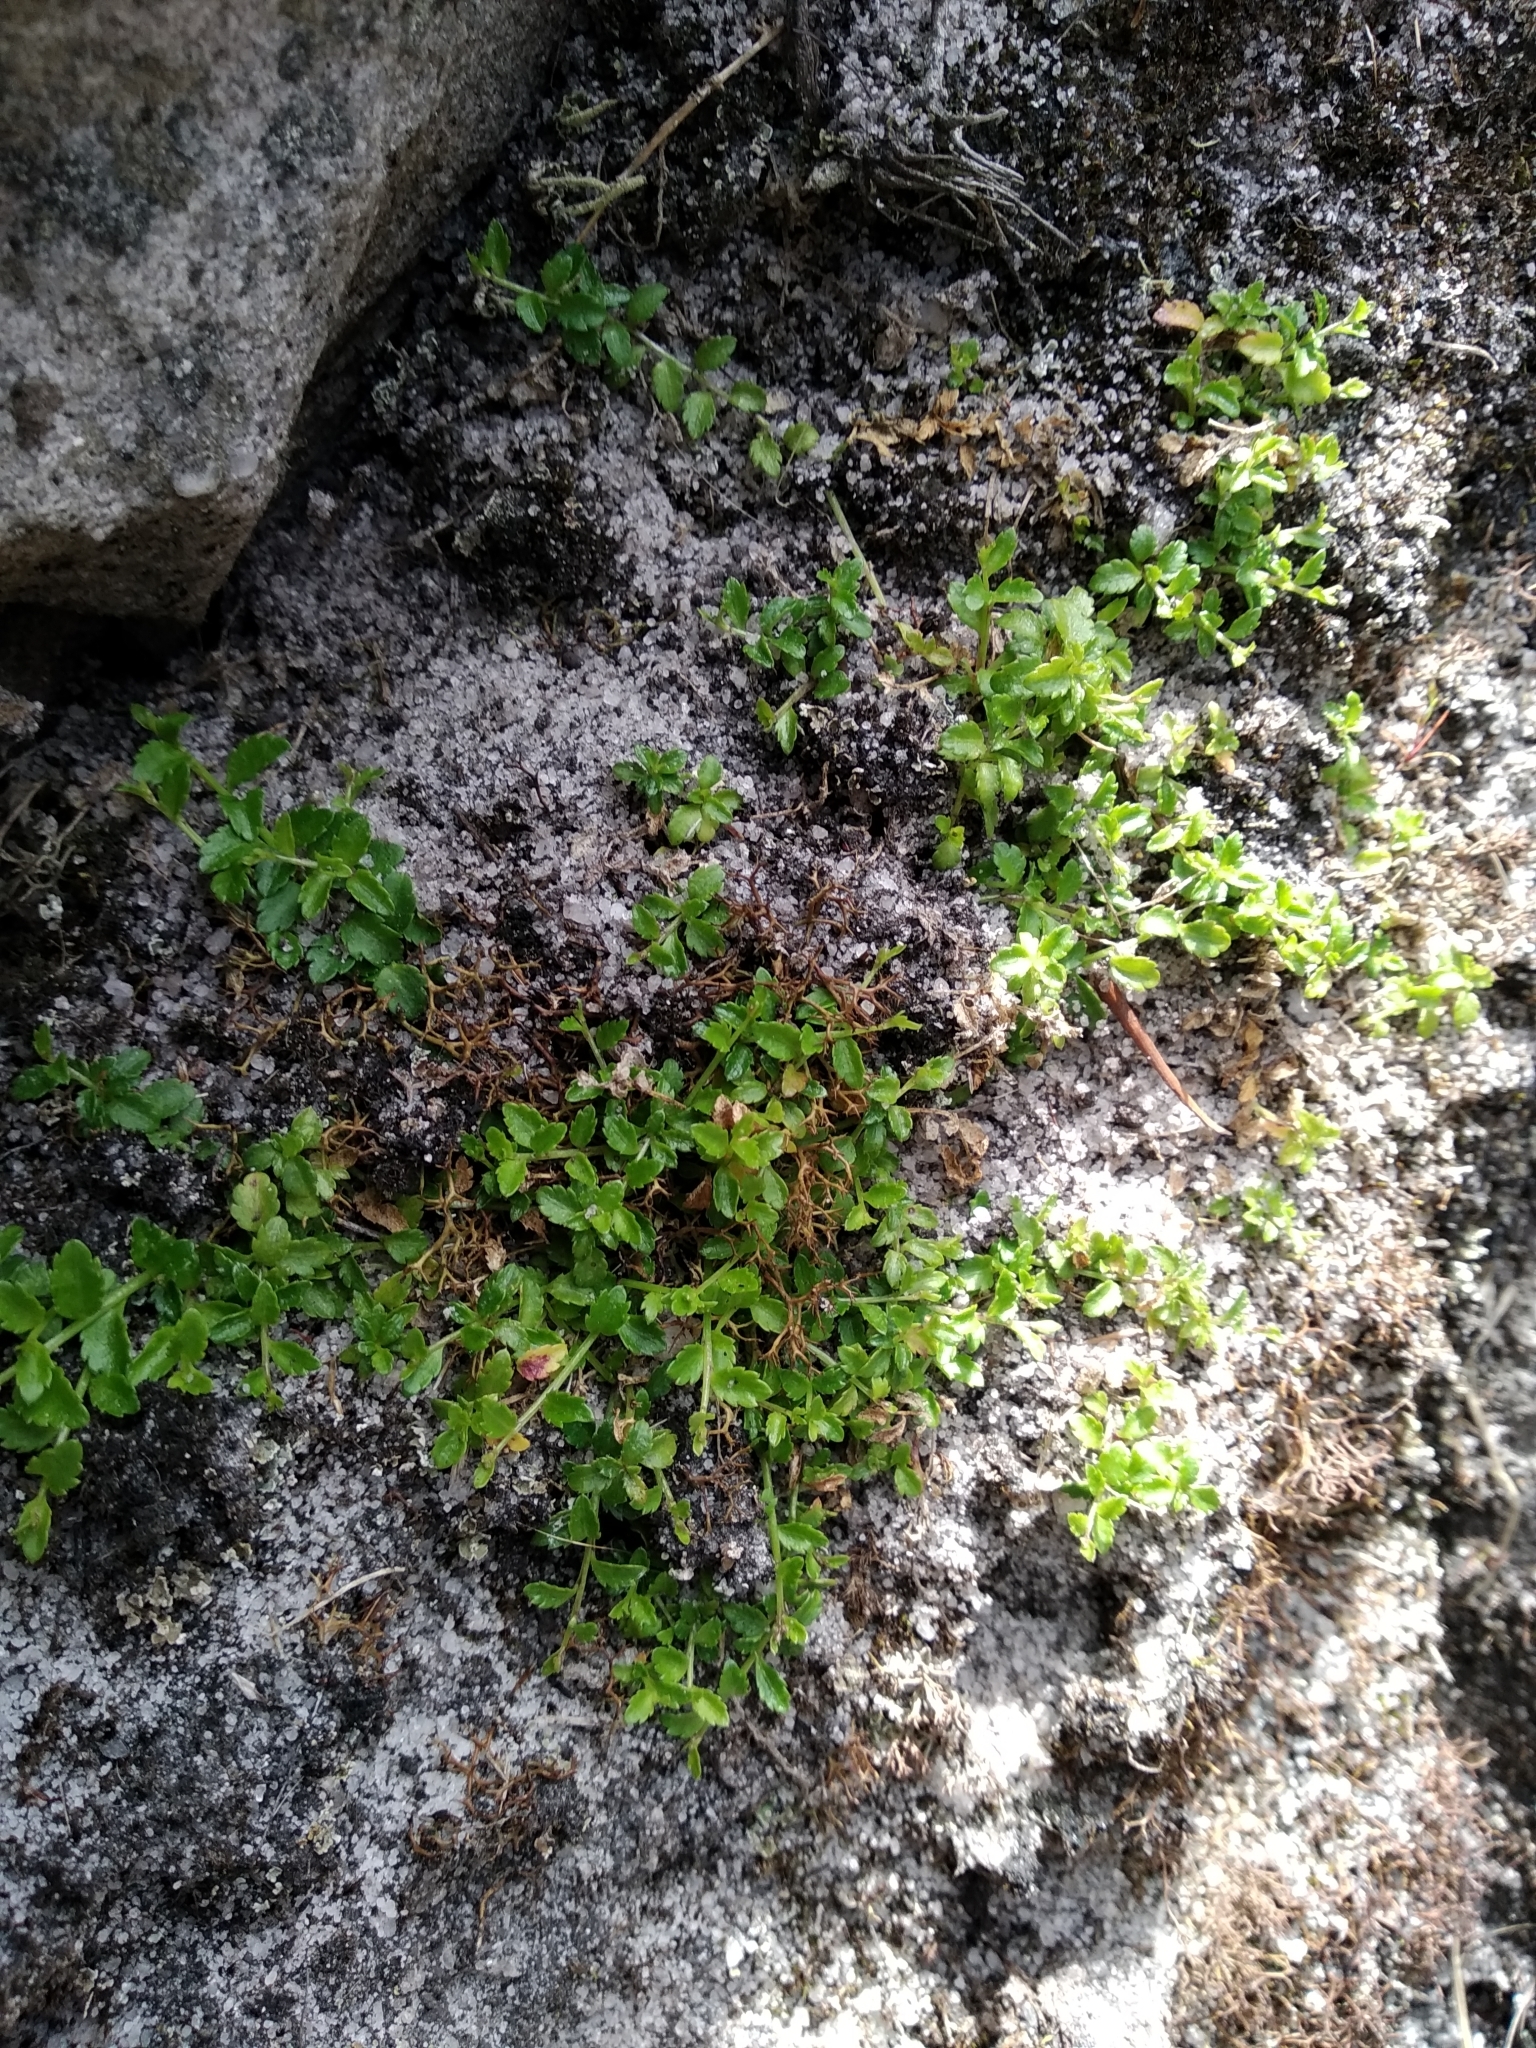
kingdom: Plantae
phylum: Tracheophyta
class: Magnoliopsida
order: Asterales
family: Campanulaceae
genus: Unigenes
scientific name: Unigenes humifusa
